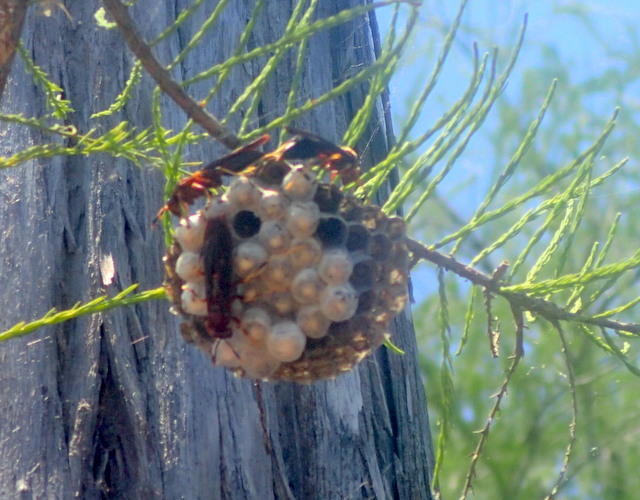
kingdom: Animalia
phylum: Arthropoda
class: Insecta
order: Hymenoptera
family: Eumenidae
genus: Polistes
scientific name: Polistes annularis
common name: Ringed paper wasp
